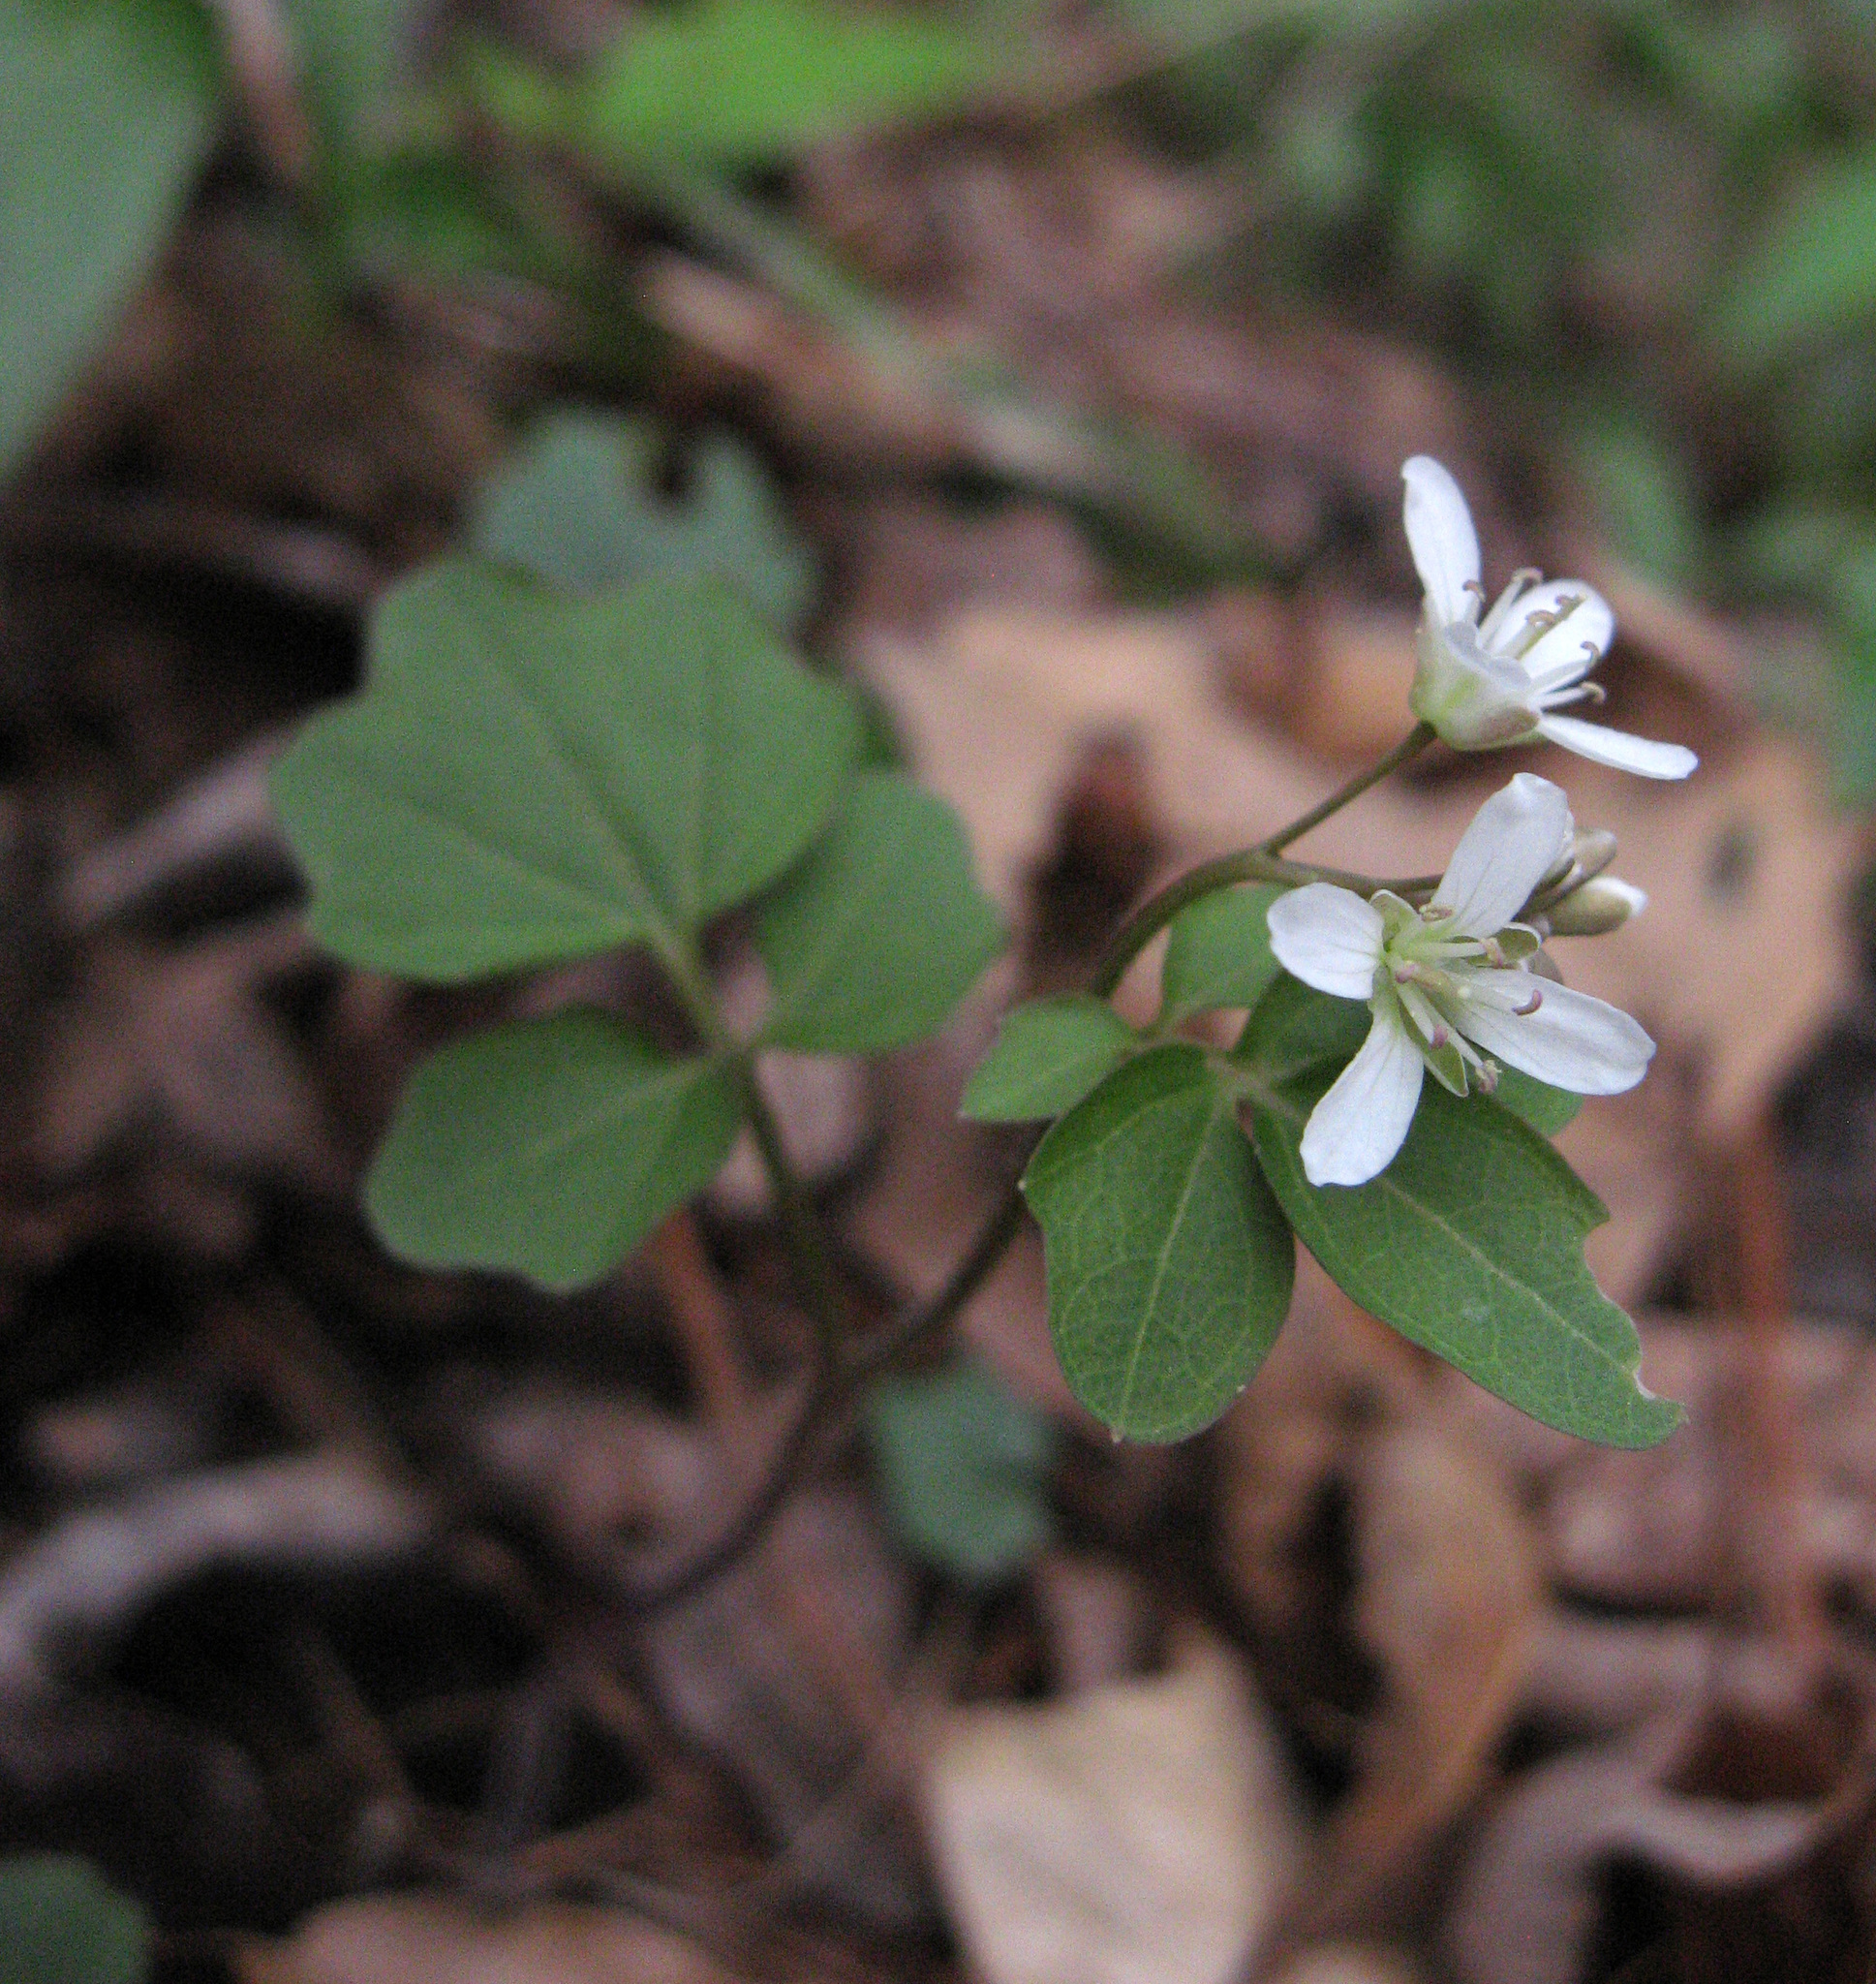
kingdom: Plantae
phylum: Tracheophyta
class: Magnoliopsida
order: Brassicales
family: Brassicaceae
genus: Cardamine
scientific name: Cardamine flagellifera
